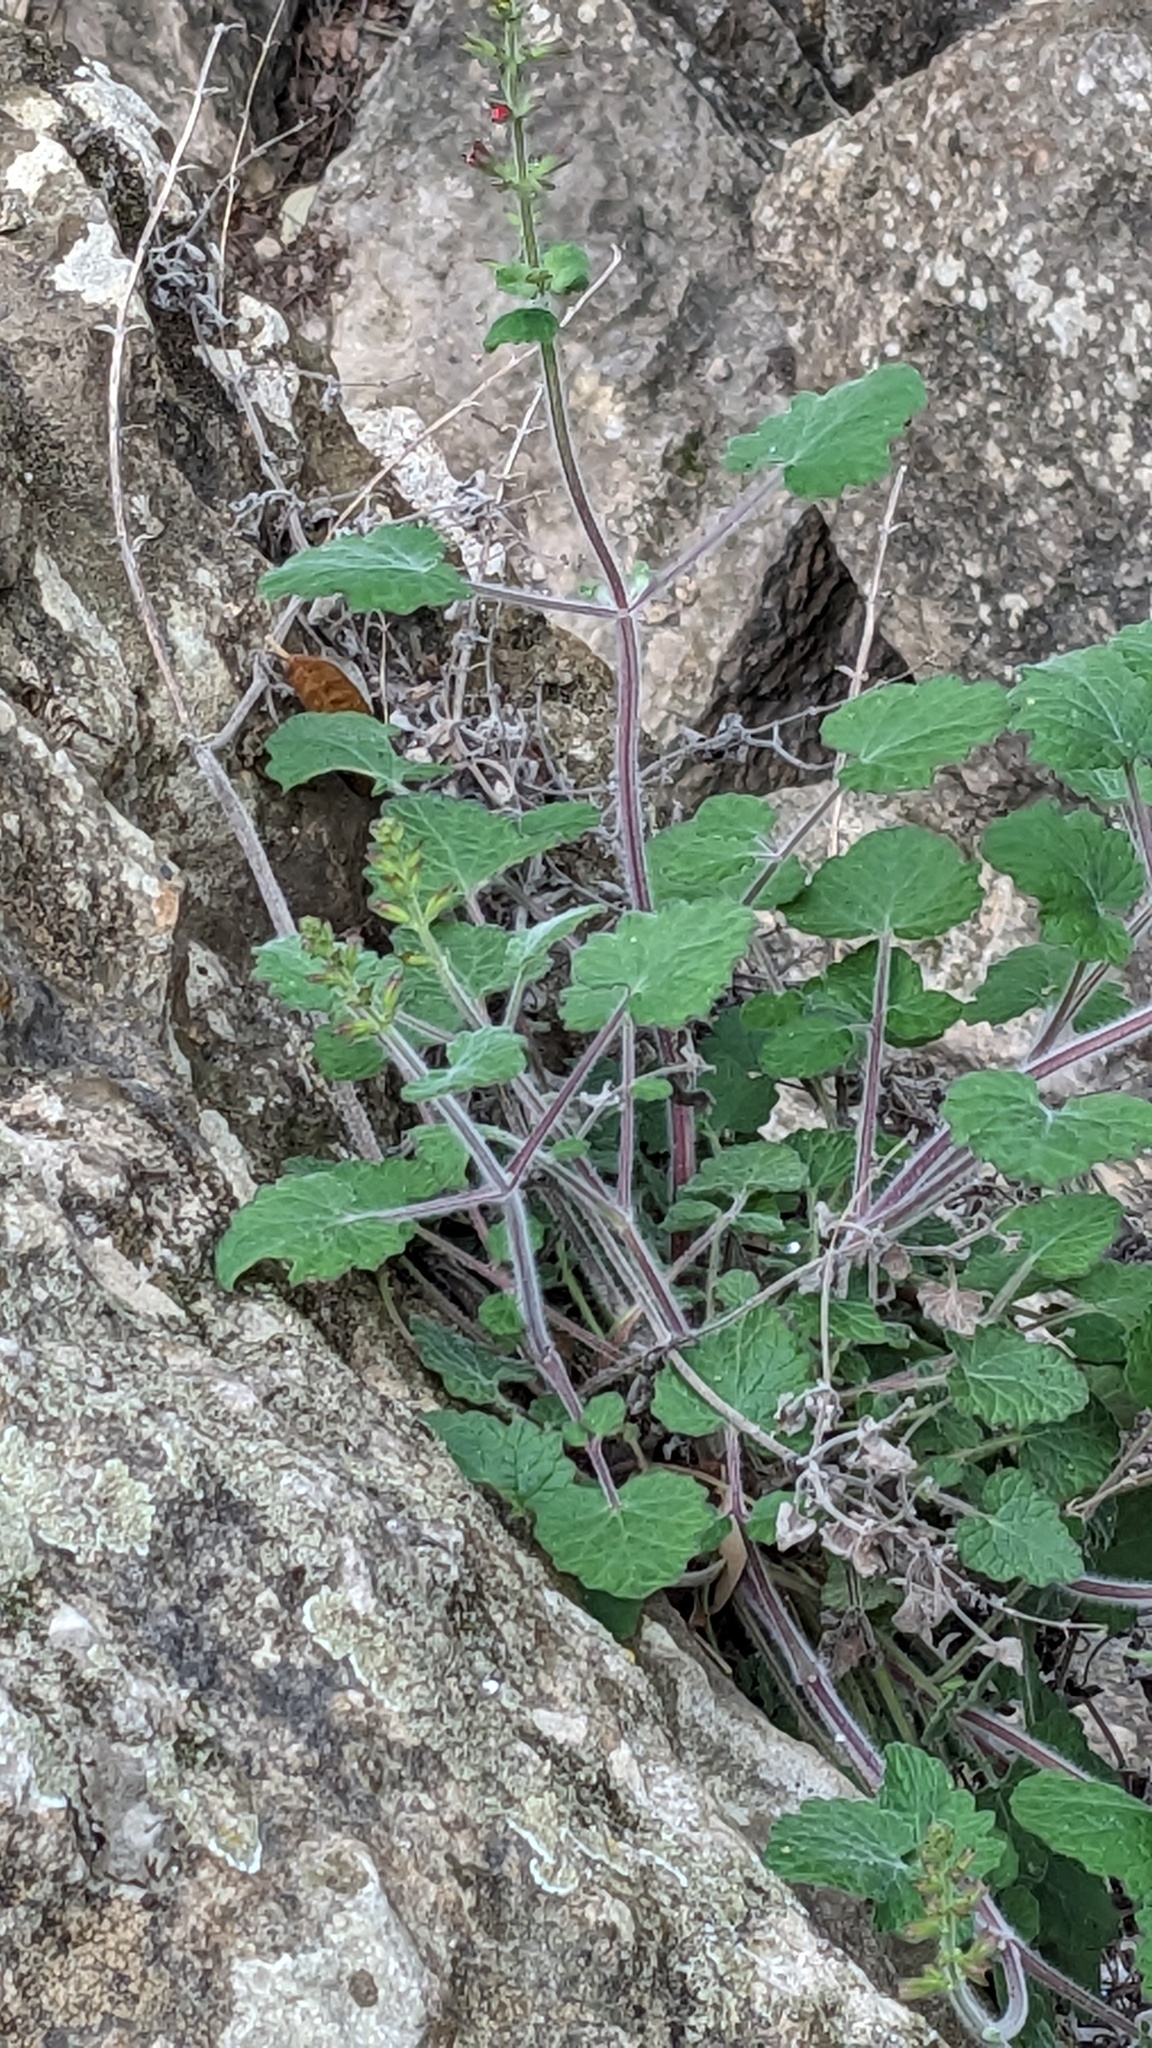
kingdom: Plantae
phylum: Tracheophyta
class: Magnoliopsida
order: Lamiales
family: Lamiaceae
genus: Salvia
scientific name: Salvia roemeriana
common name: Cedar sage
